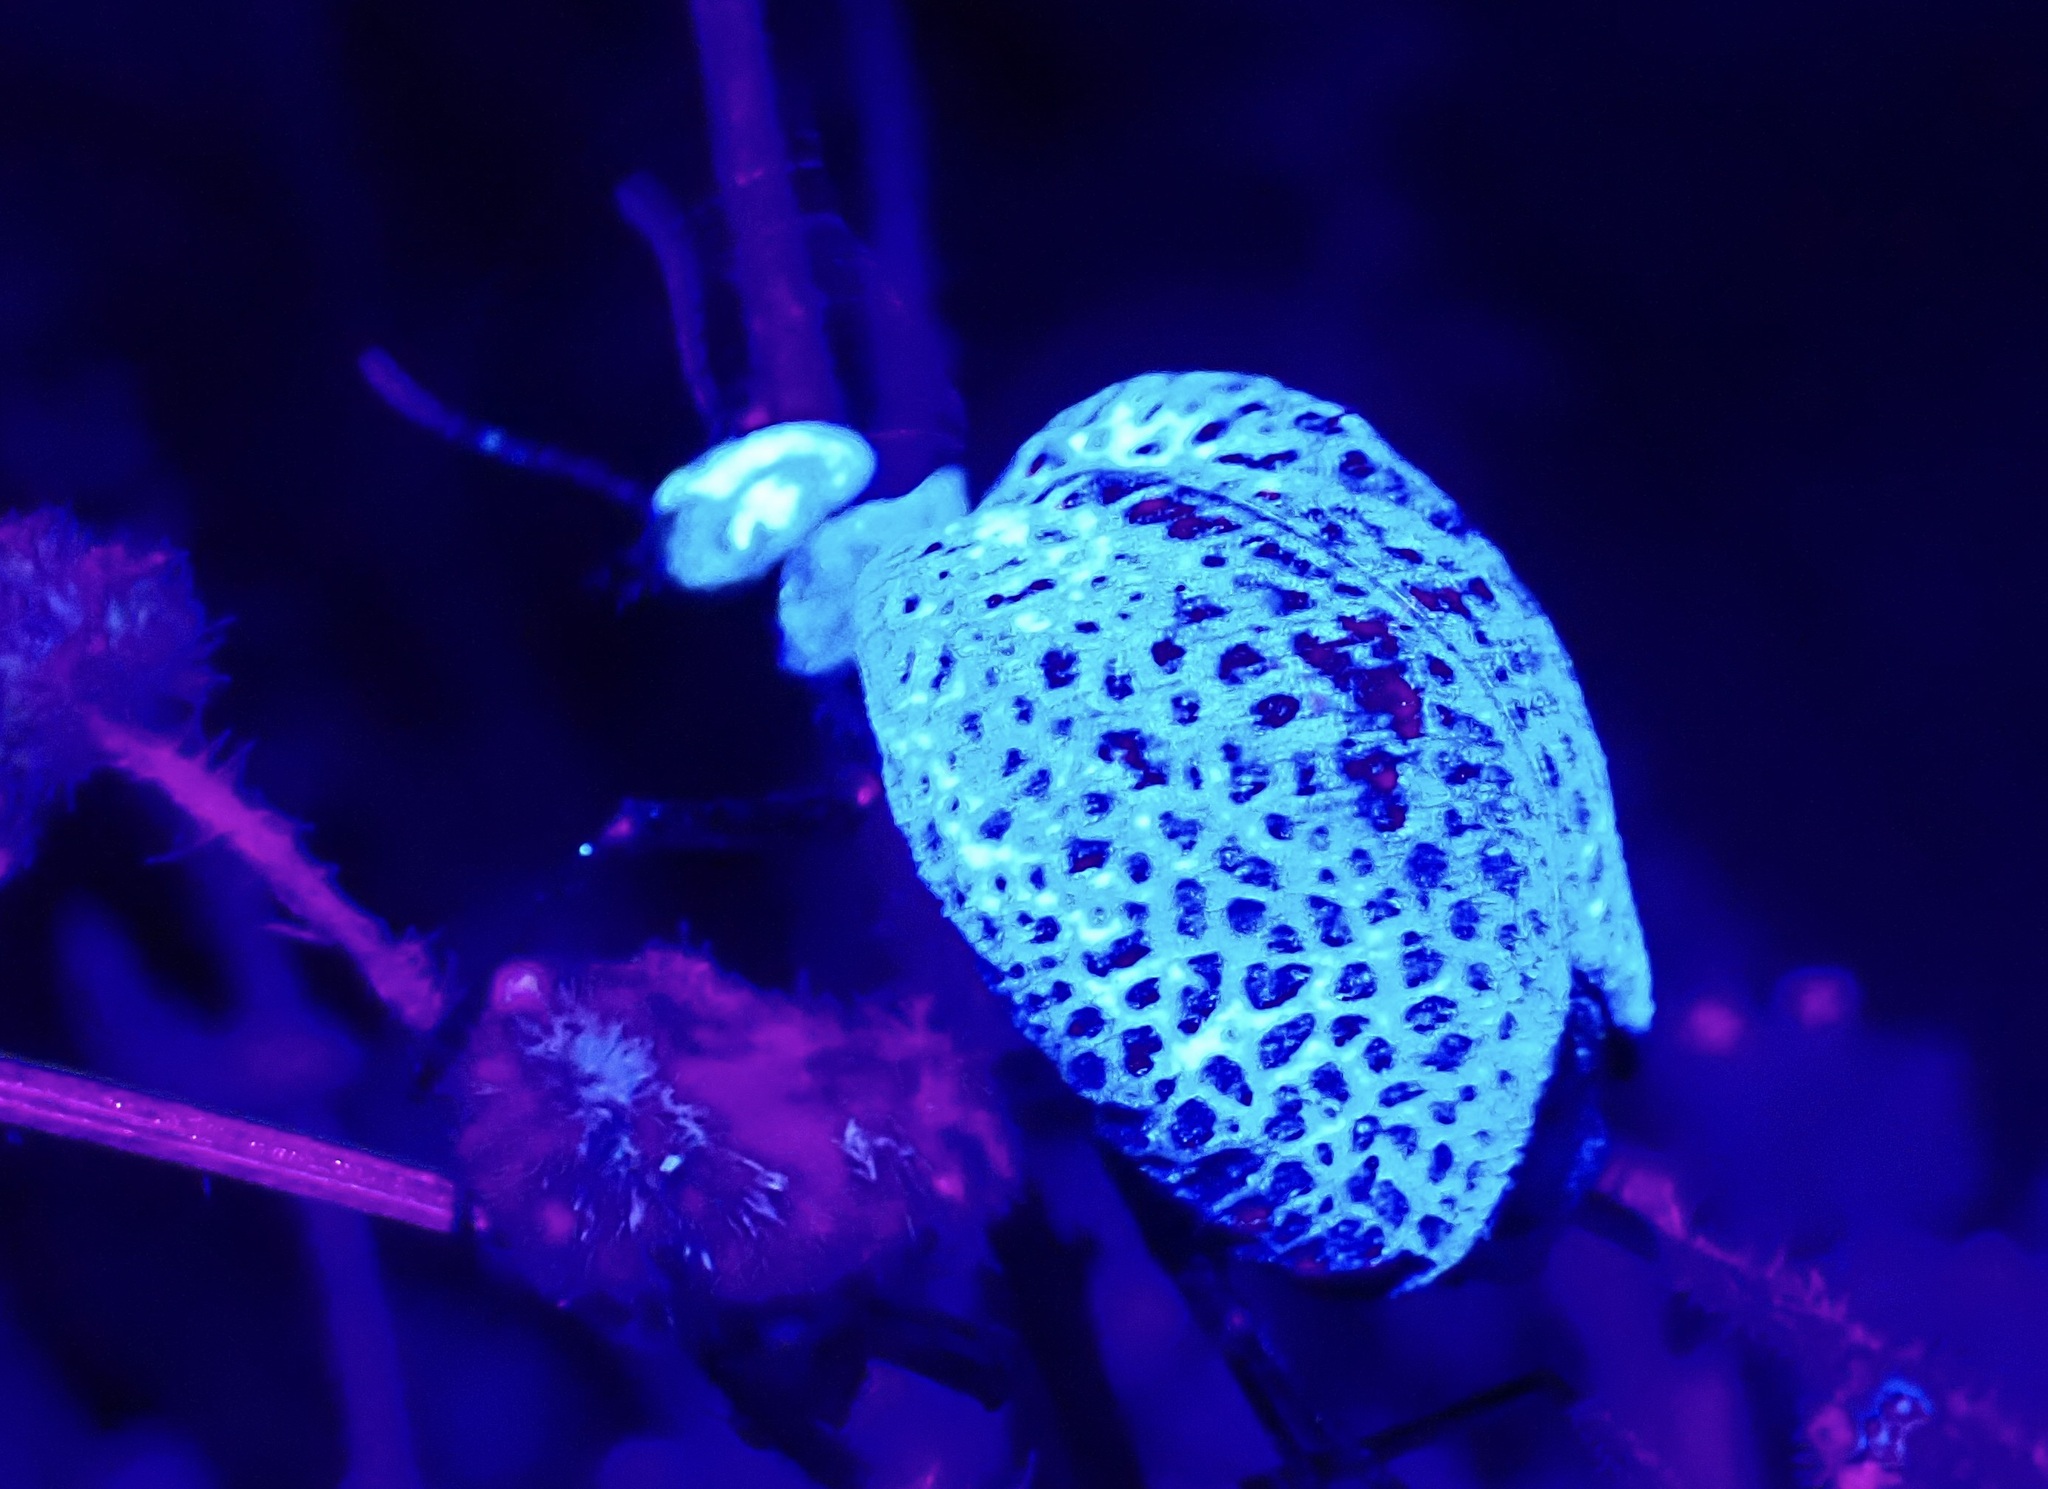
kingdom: Animalia
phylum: Arthropoda
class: Insecta
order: Coleoptera
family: Meloidae
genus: Cysteodemus
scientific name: Cysteodemus armatus
